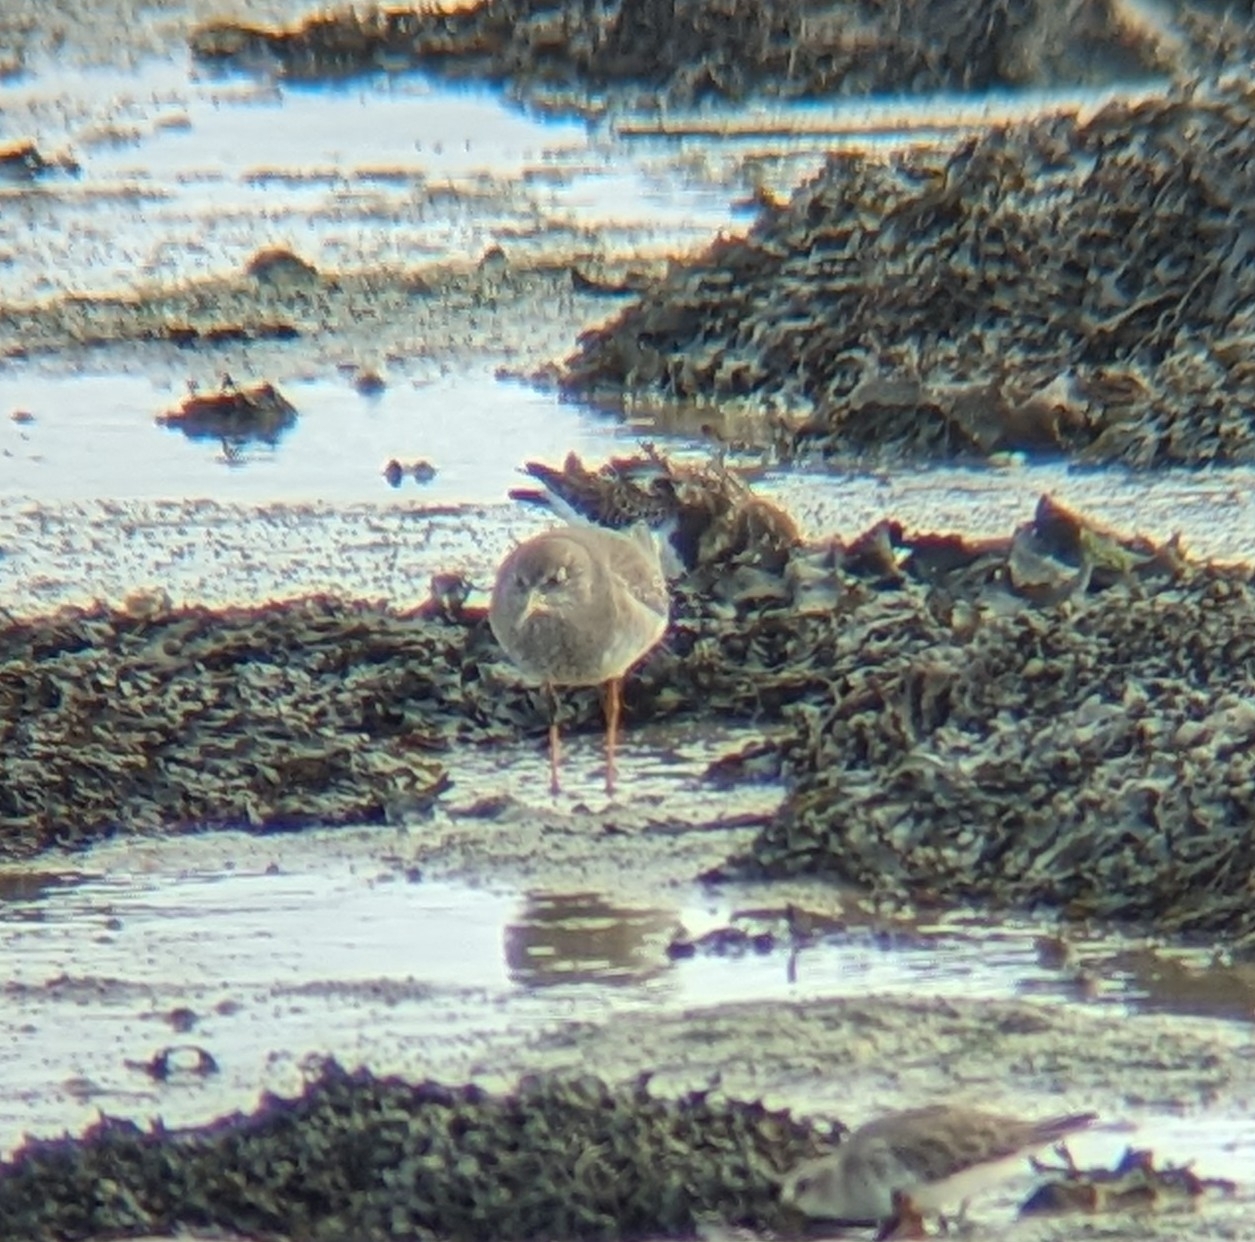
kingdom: Animalia
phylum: Chordata
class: Aves
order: Charadriiformes
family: Scolopacidae
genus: Tringa
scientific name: Tringa totanus
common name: Common redshank
